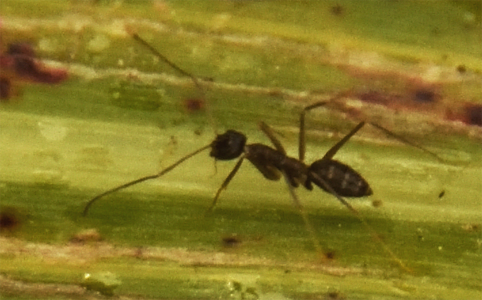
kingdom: Animalia
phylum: Arthropoda
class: Insecta
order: Hymenoptera
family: Formicidae
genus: Paratrechina
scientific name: Paratrechina longicornis
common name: Longhorned crazy ant
